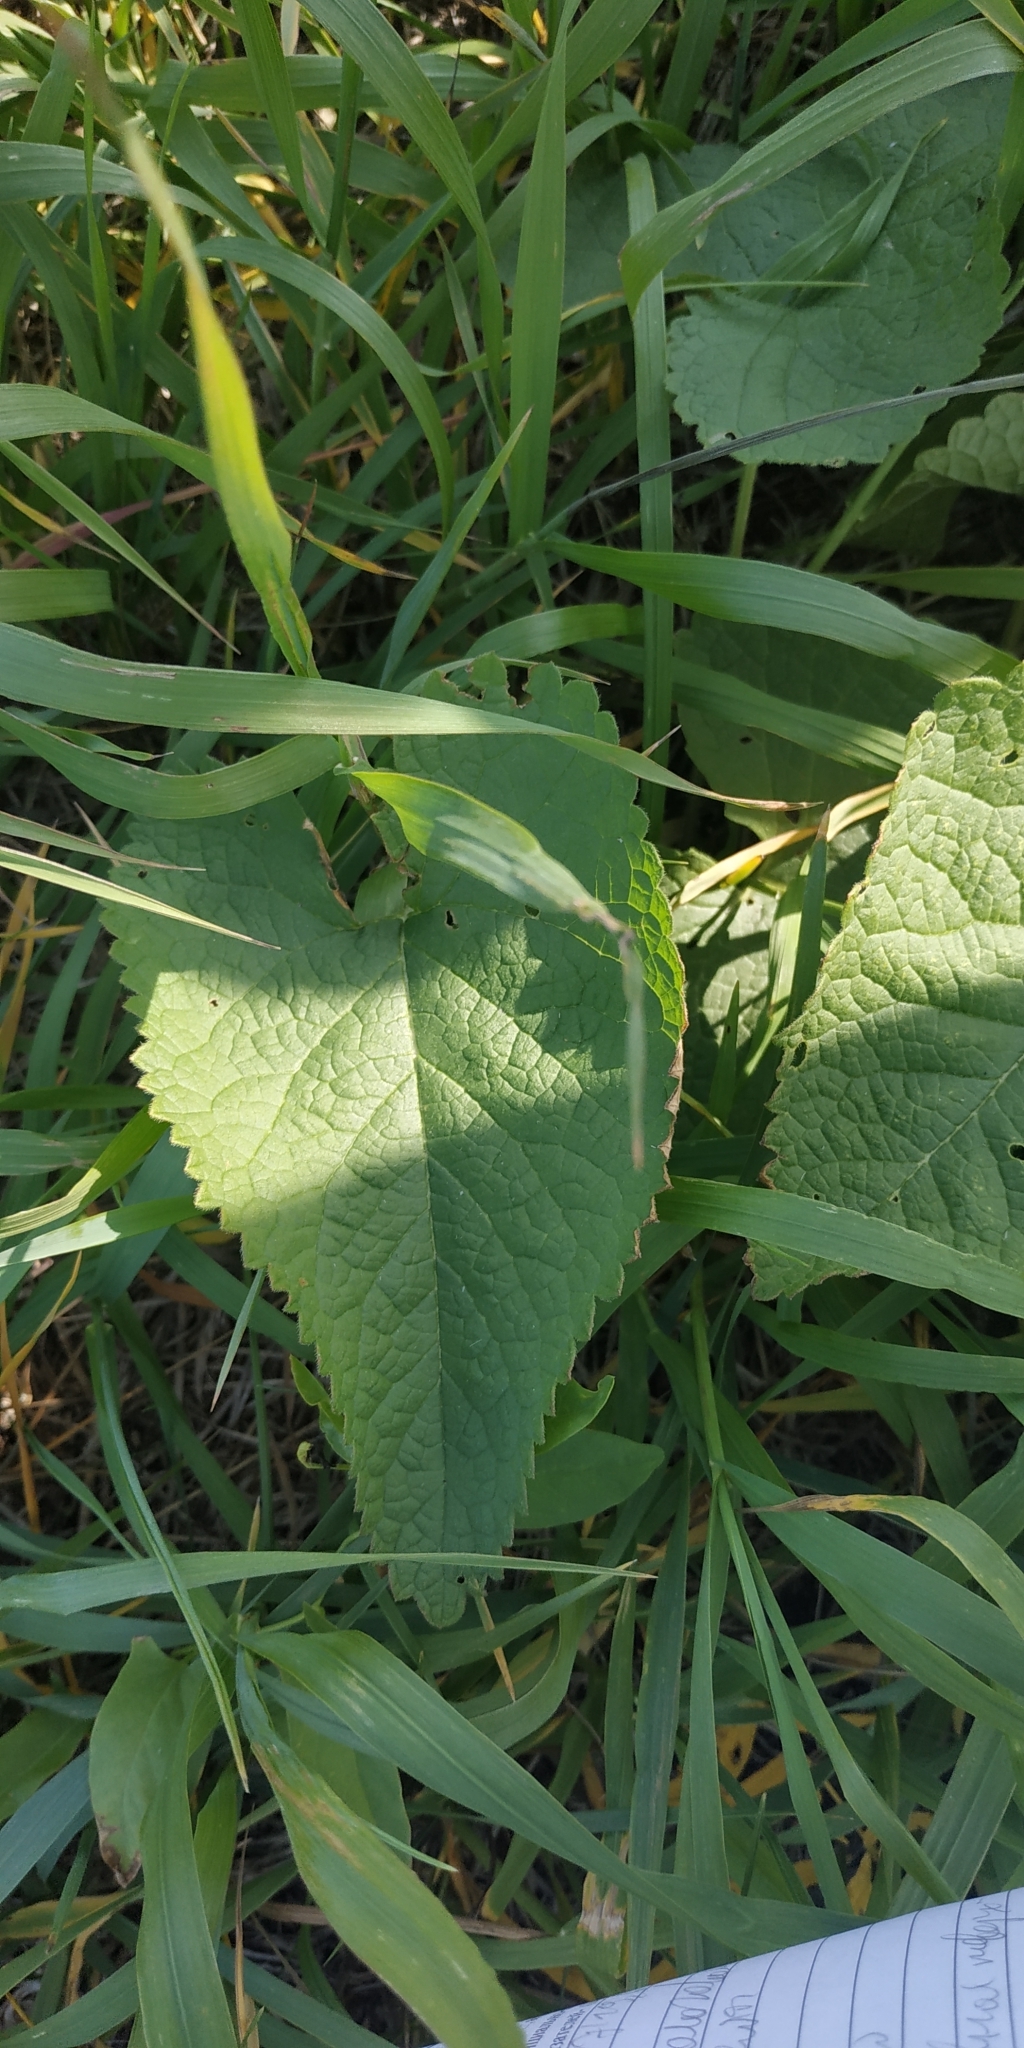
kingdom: Plantae
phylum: Tracheophyta
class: Magnoliopsida
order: Lamiales
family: Lamiaceae
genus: Phlomoides
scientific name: Phlomoides tuberosa
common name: Tuberous jerusalem sage
